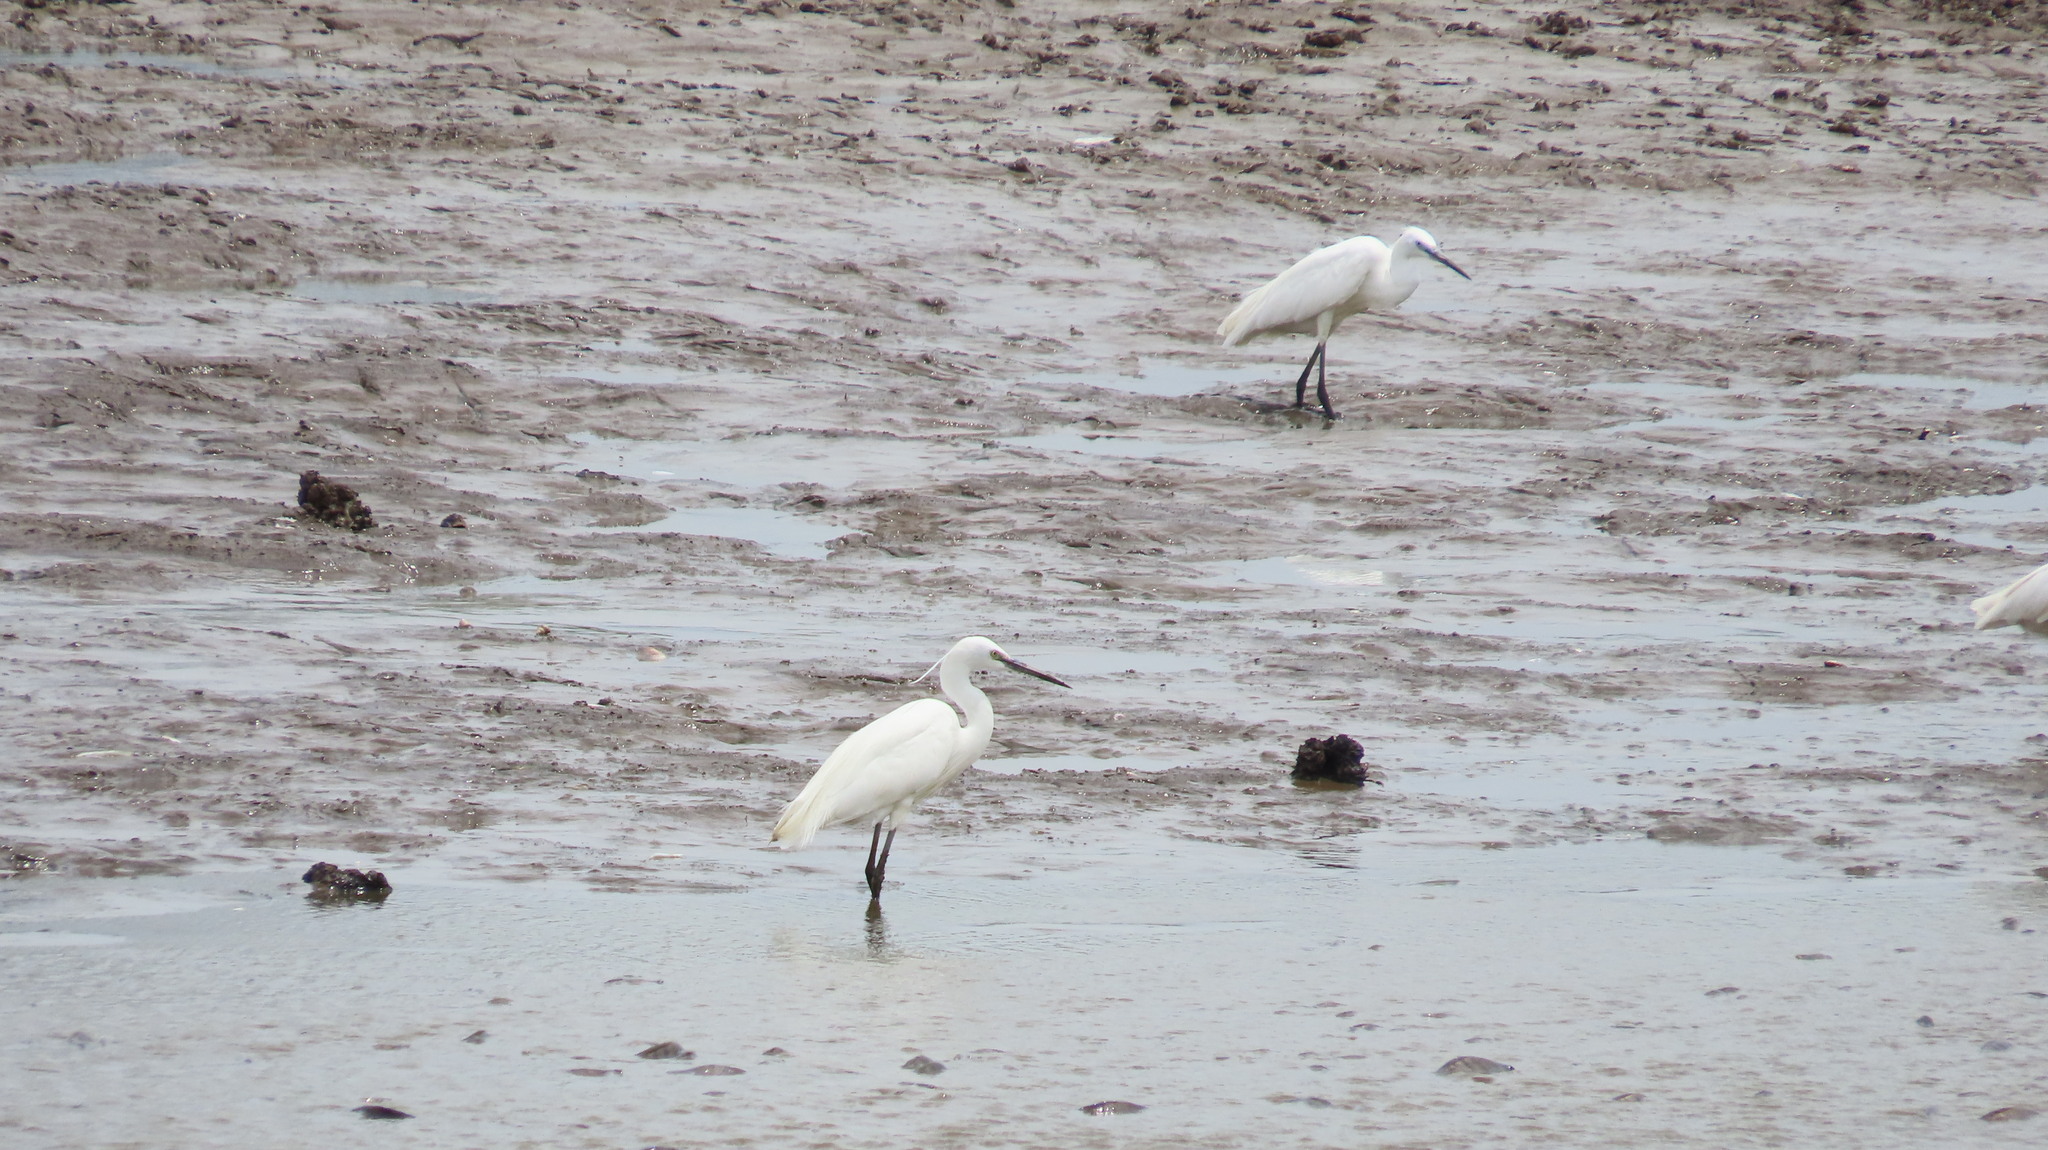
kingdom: Animalia
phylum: Chordata
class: Aves
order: Pelecaniformes
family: Ardeidae
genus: Egretta
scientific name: Egretta garzetta
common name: Little egret
